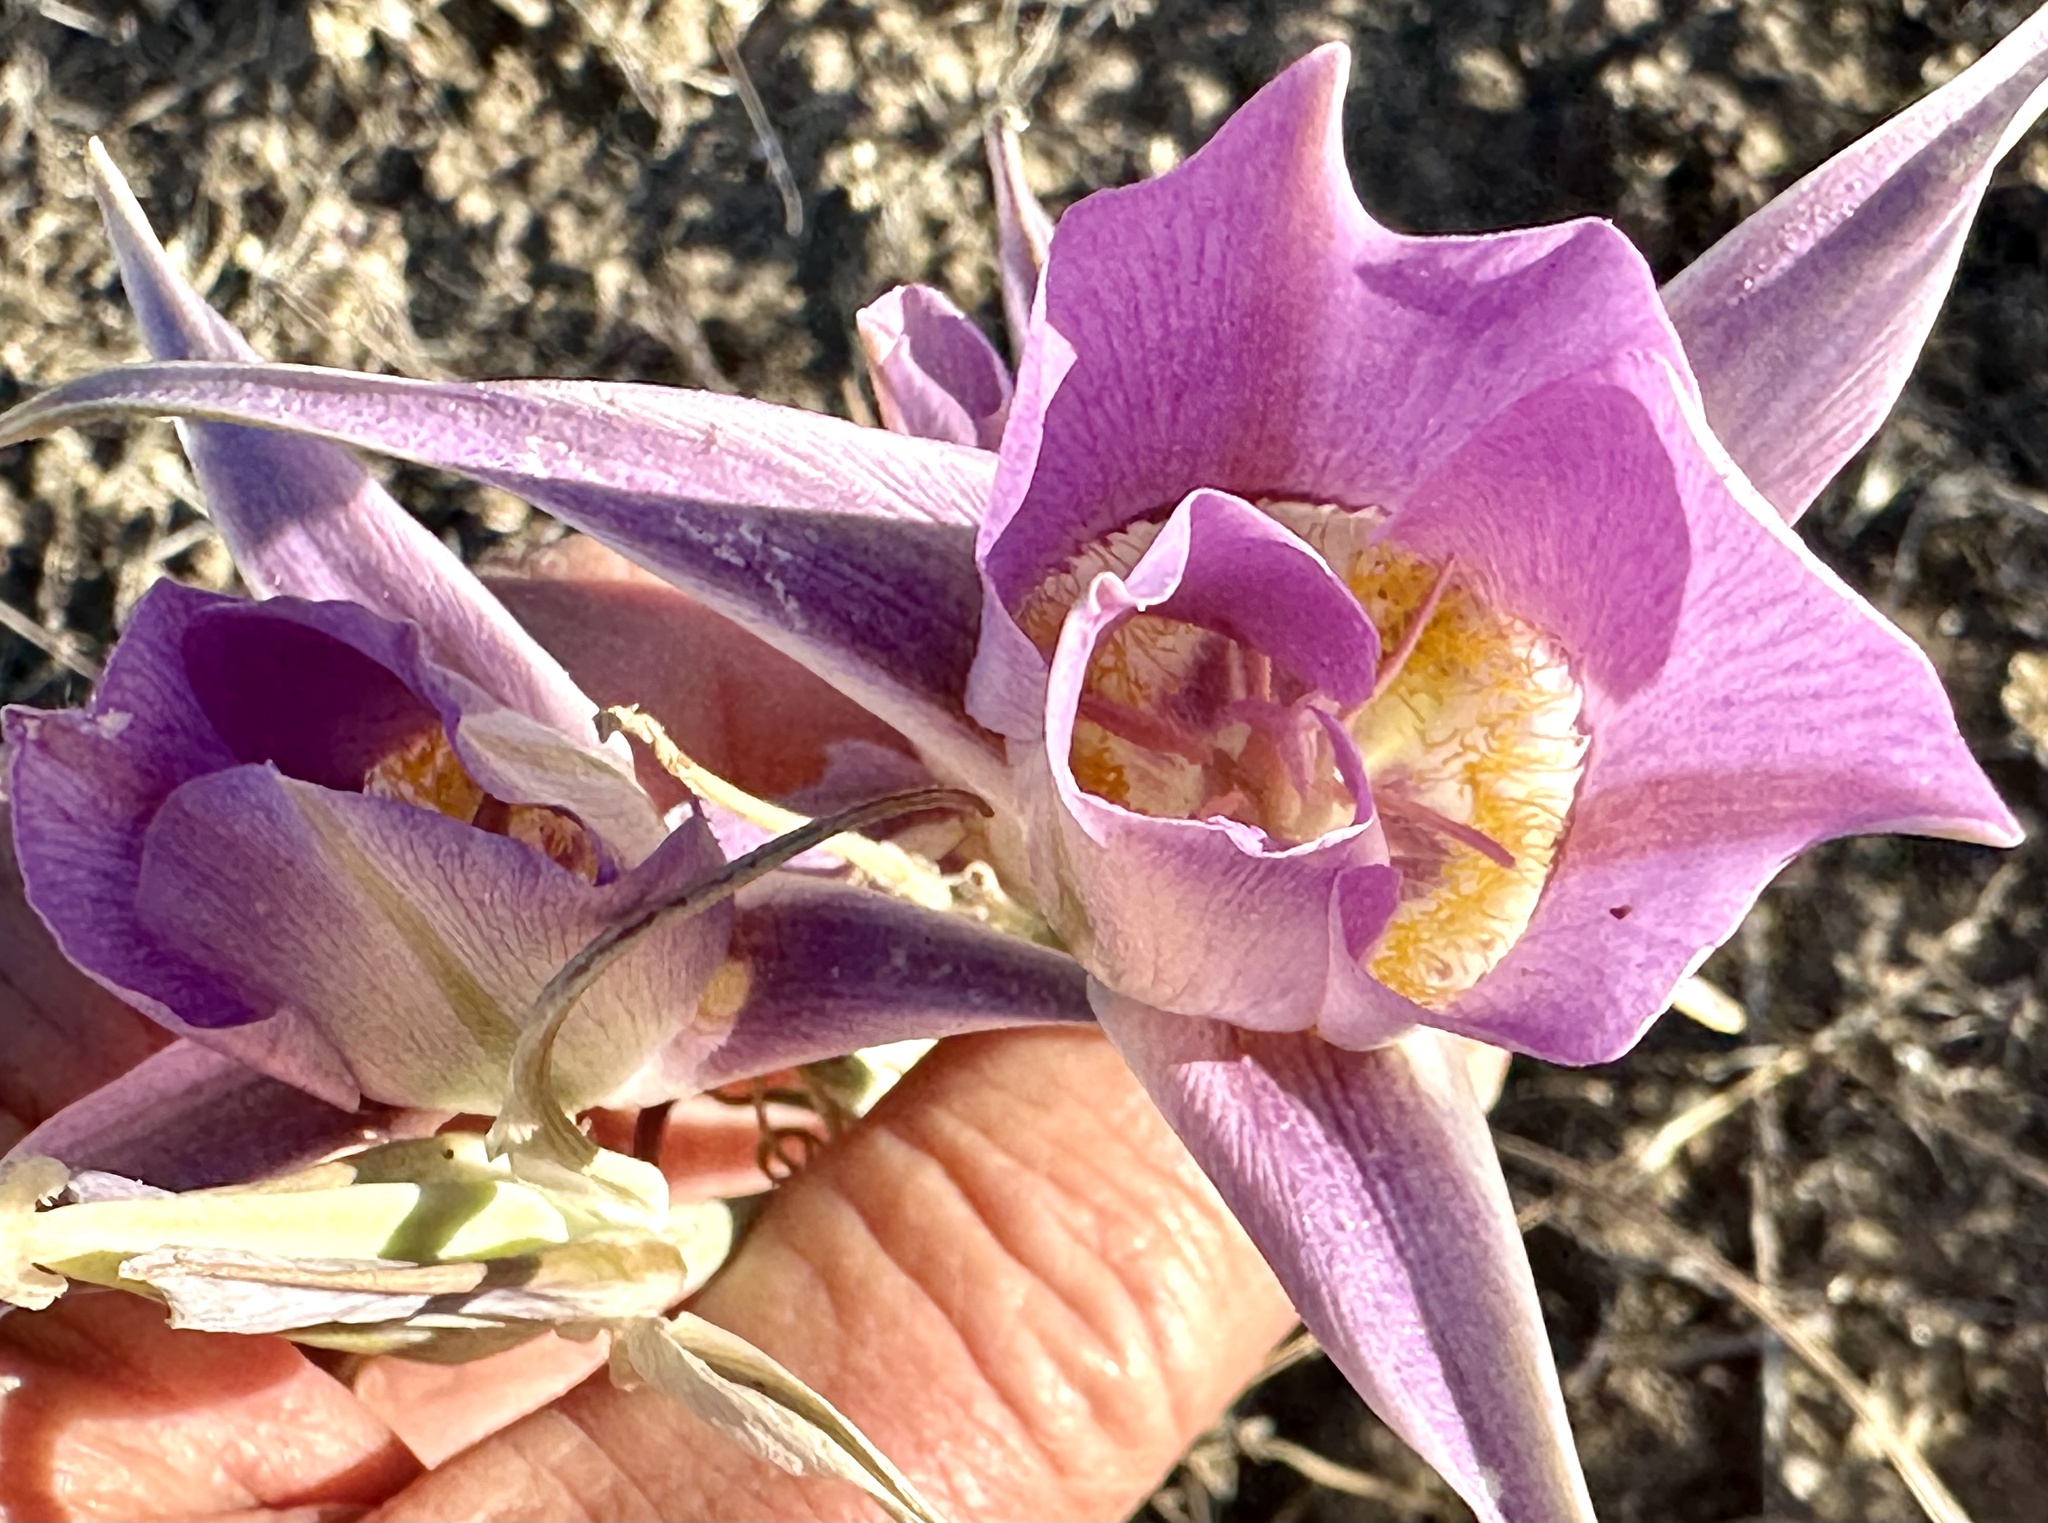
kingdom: Plantae
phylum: Tracheophyta
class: Liliopsida
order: Liliales
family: Liliaceae
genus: Calochortus
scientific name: Calochortus macrocarpus
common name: Green-band mariposa lily
